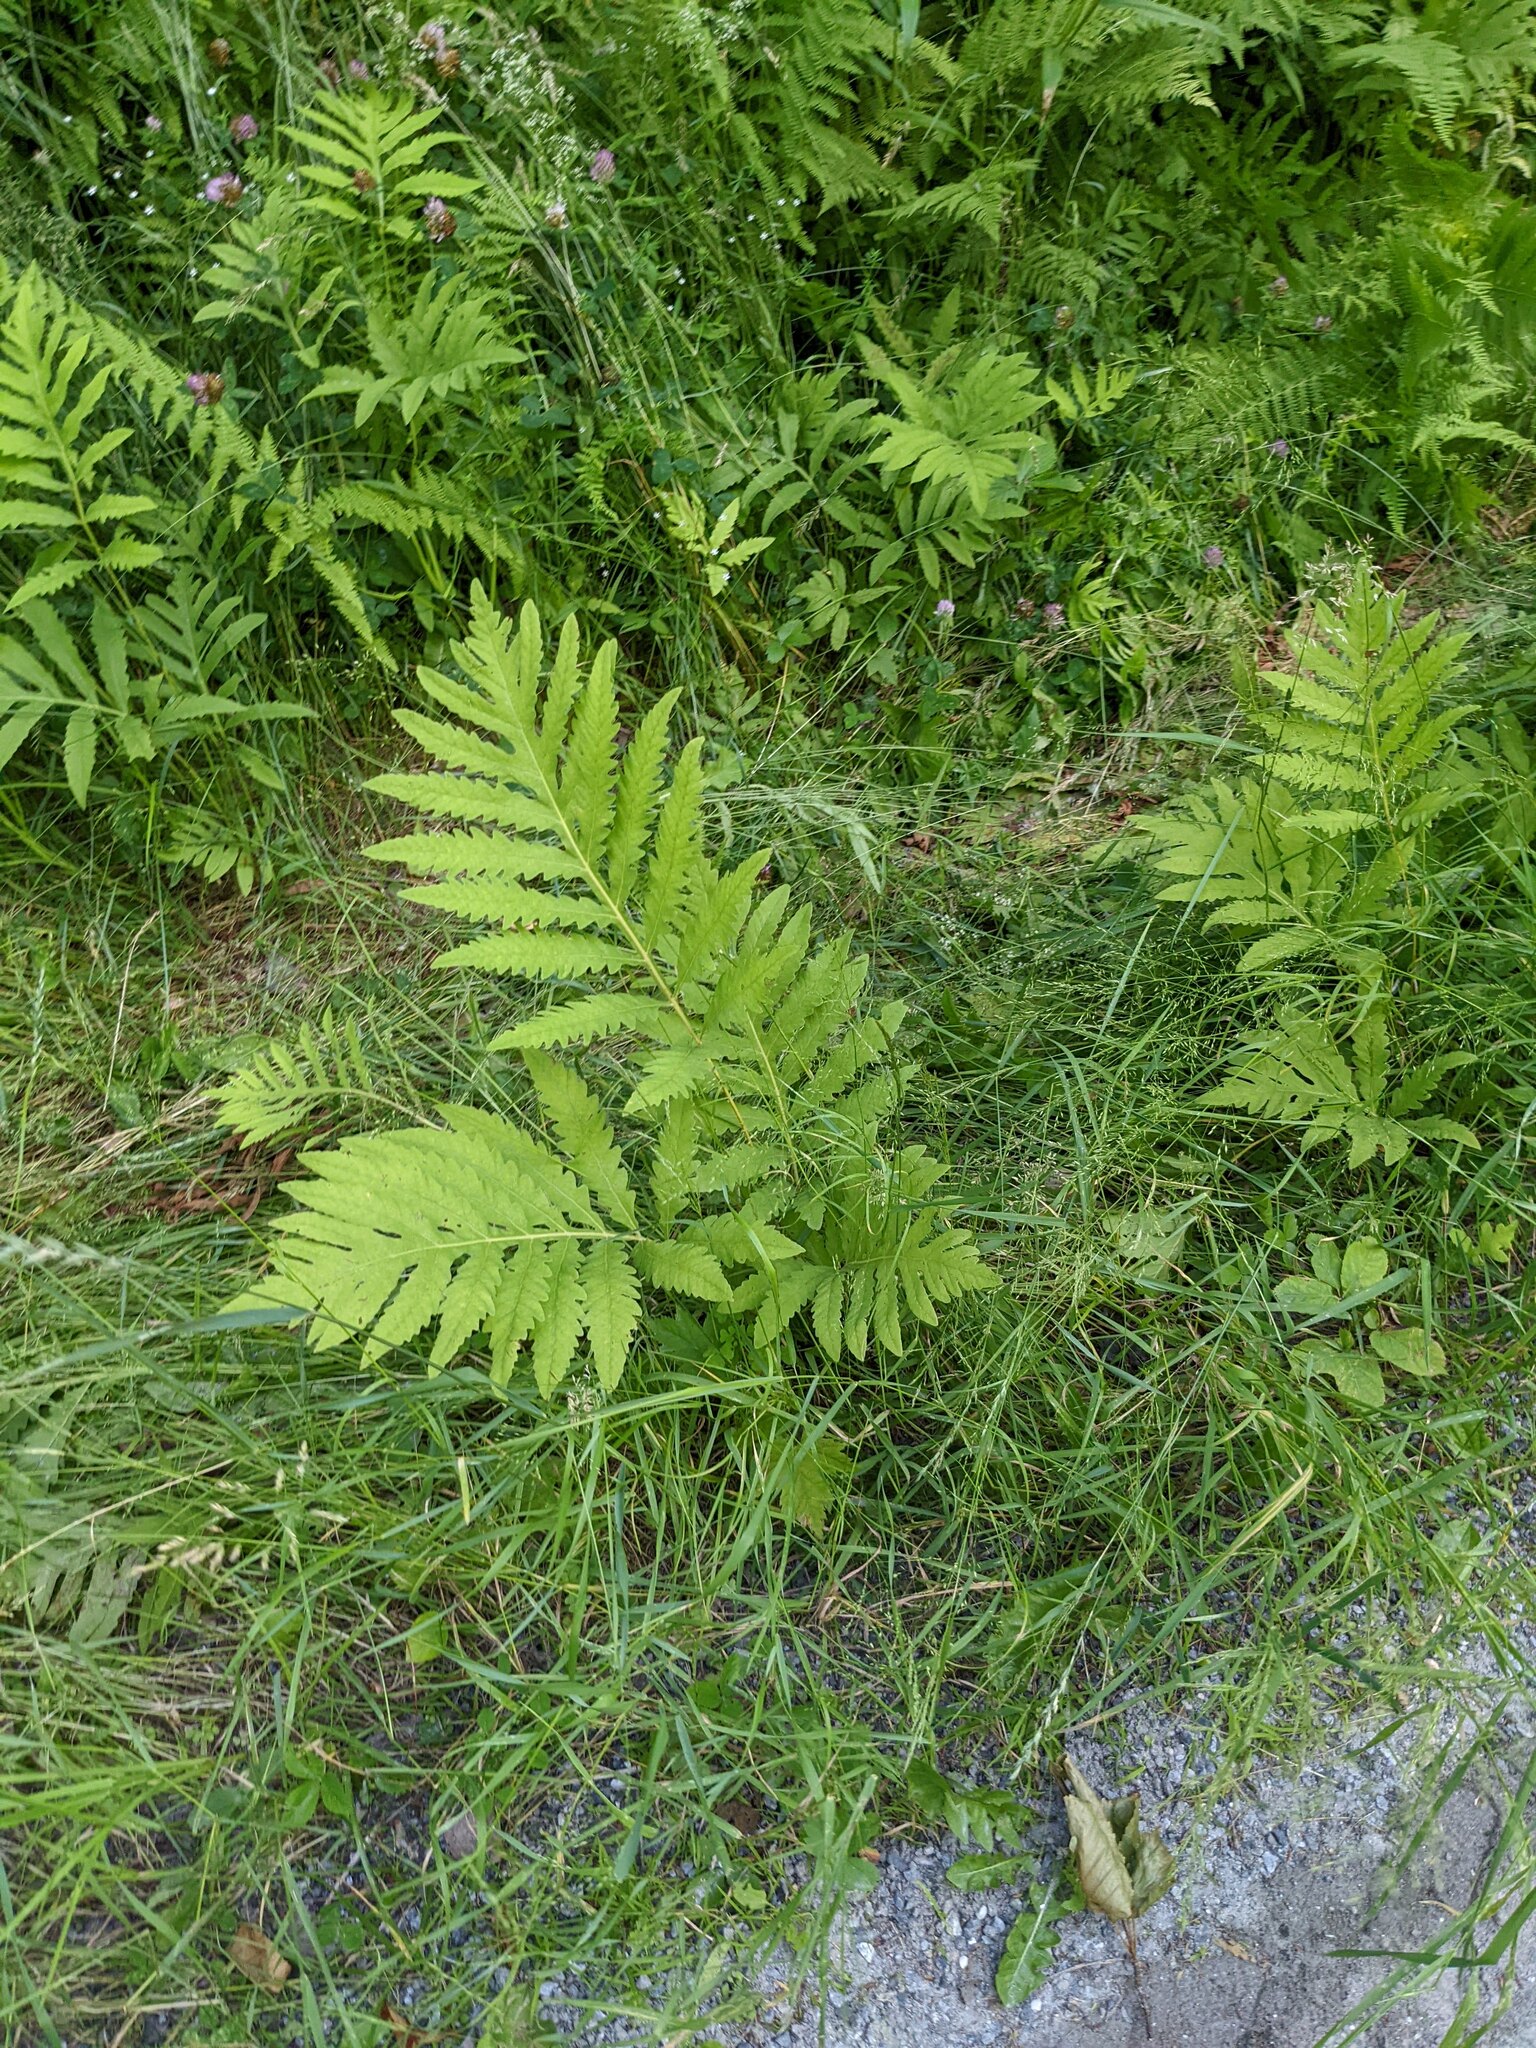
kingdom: Plantae
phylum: Tracheophyta
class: Polypodiopsida
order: Polypodiales
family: Onocleaceae
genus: Onoclea
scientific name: Onoclea sensibilis
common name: Sensitive fern
